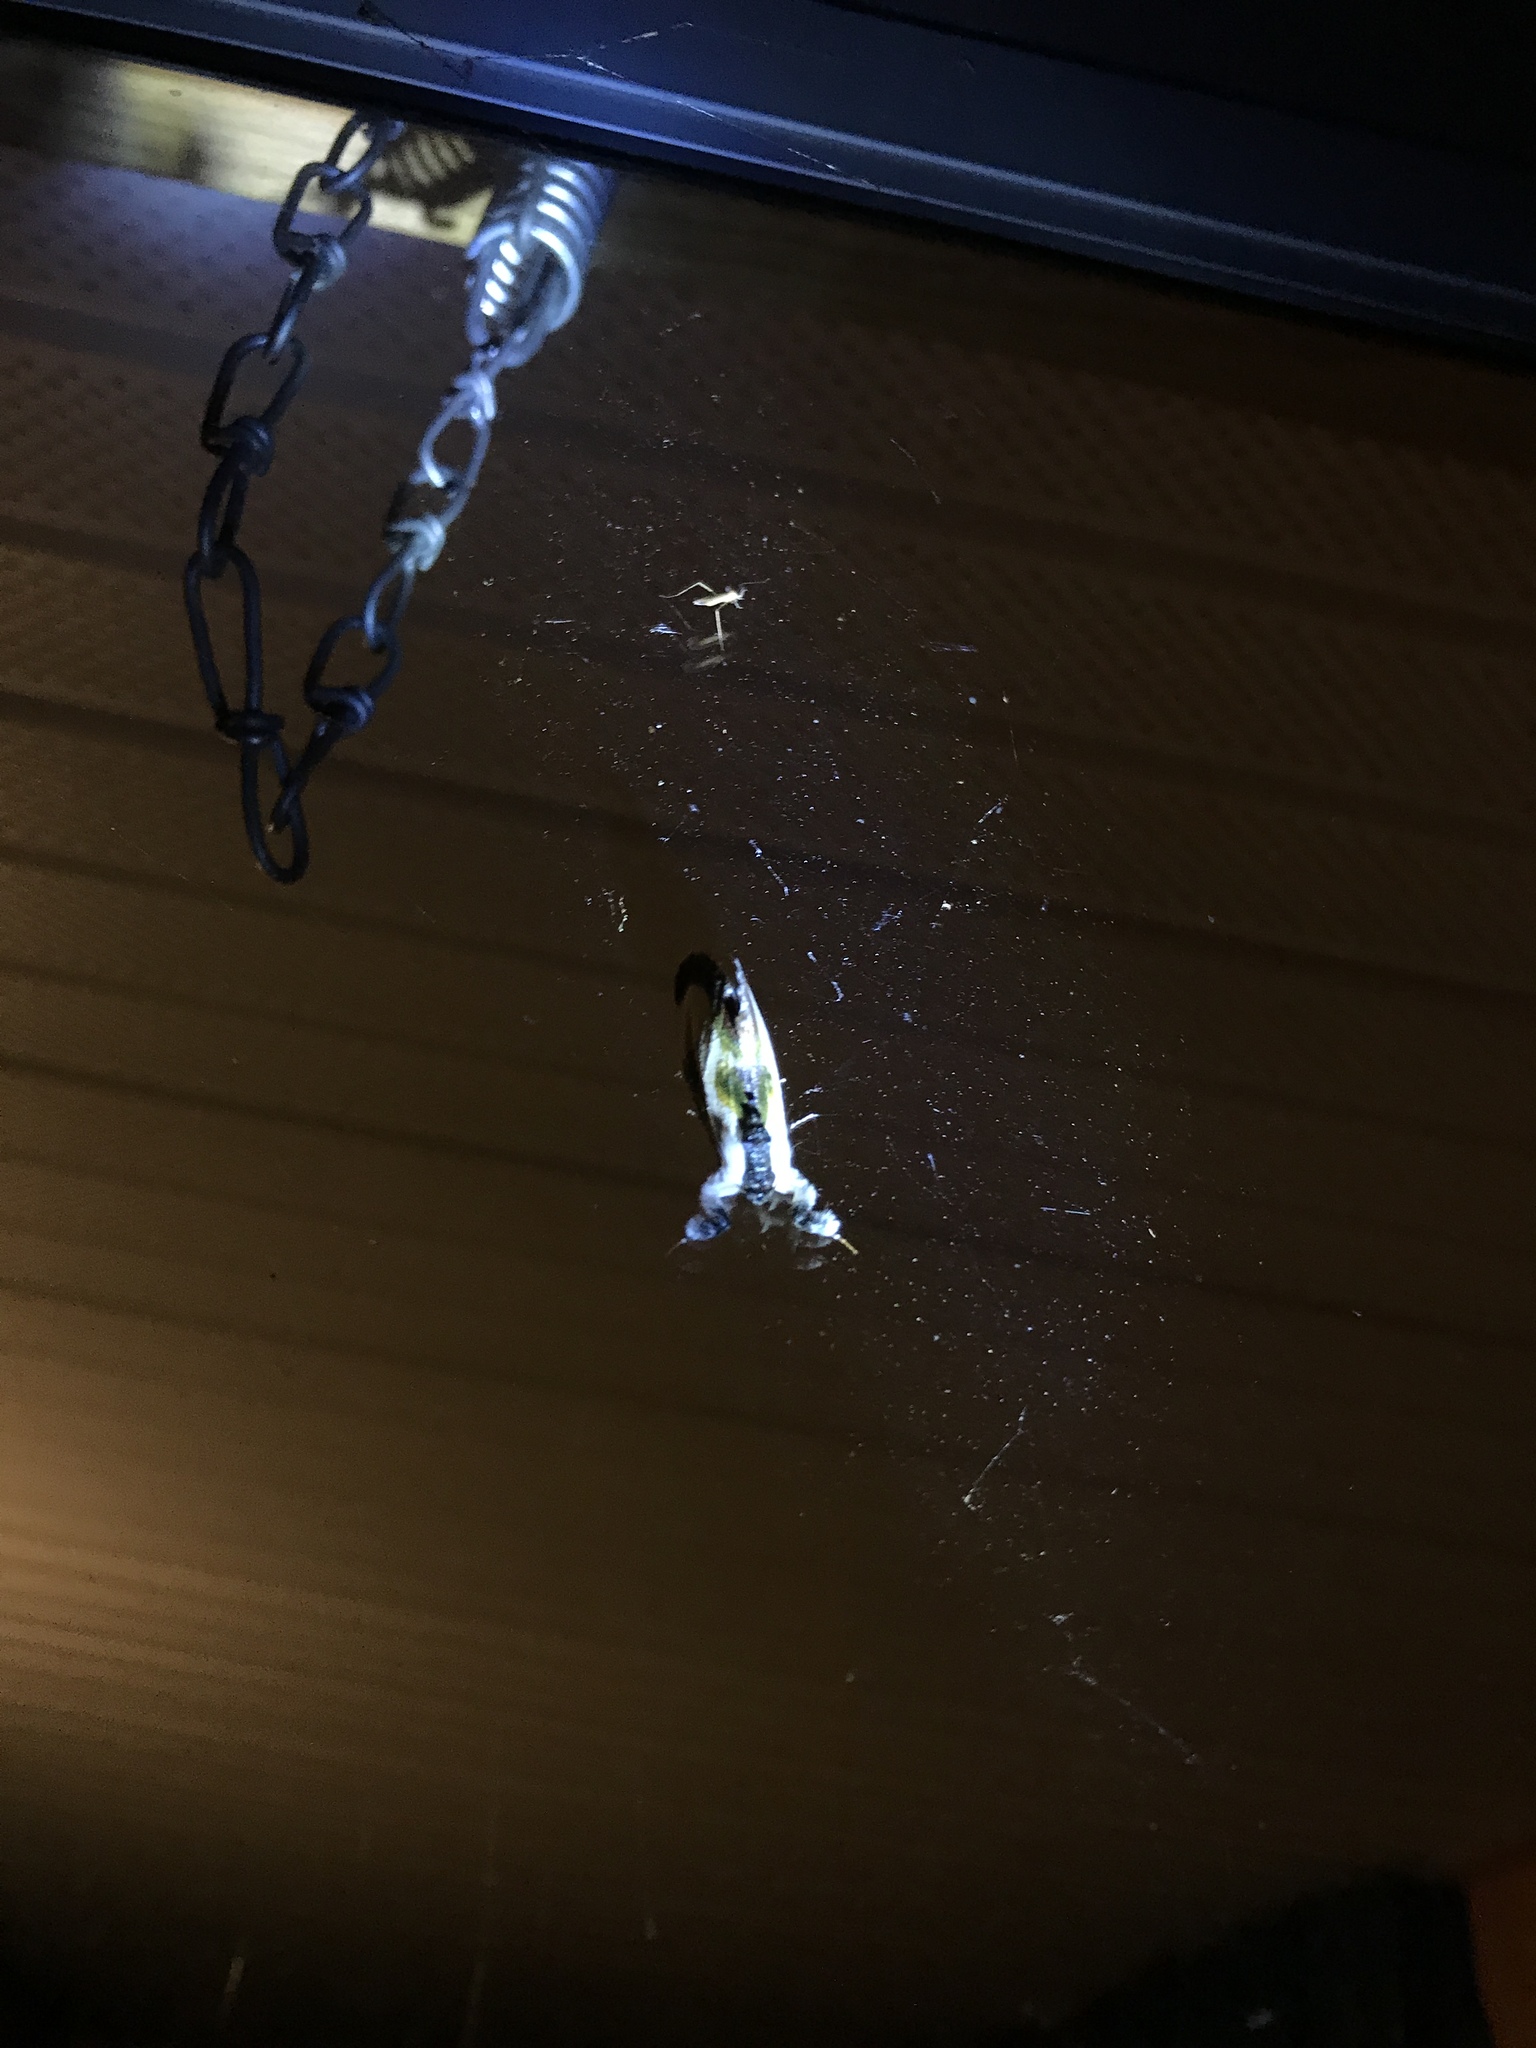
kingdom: Animalia
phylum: Arthropoda
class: Insecta
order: Lepidoptera
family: Noctuidae
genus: Eudryas
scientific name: Eudryas grata
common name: Beautiful wood-nymph
